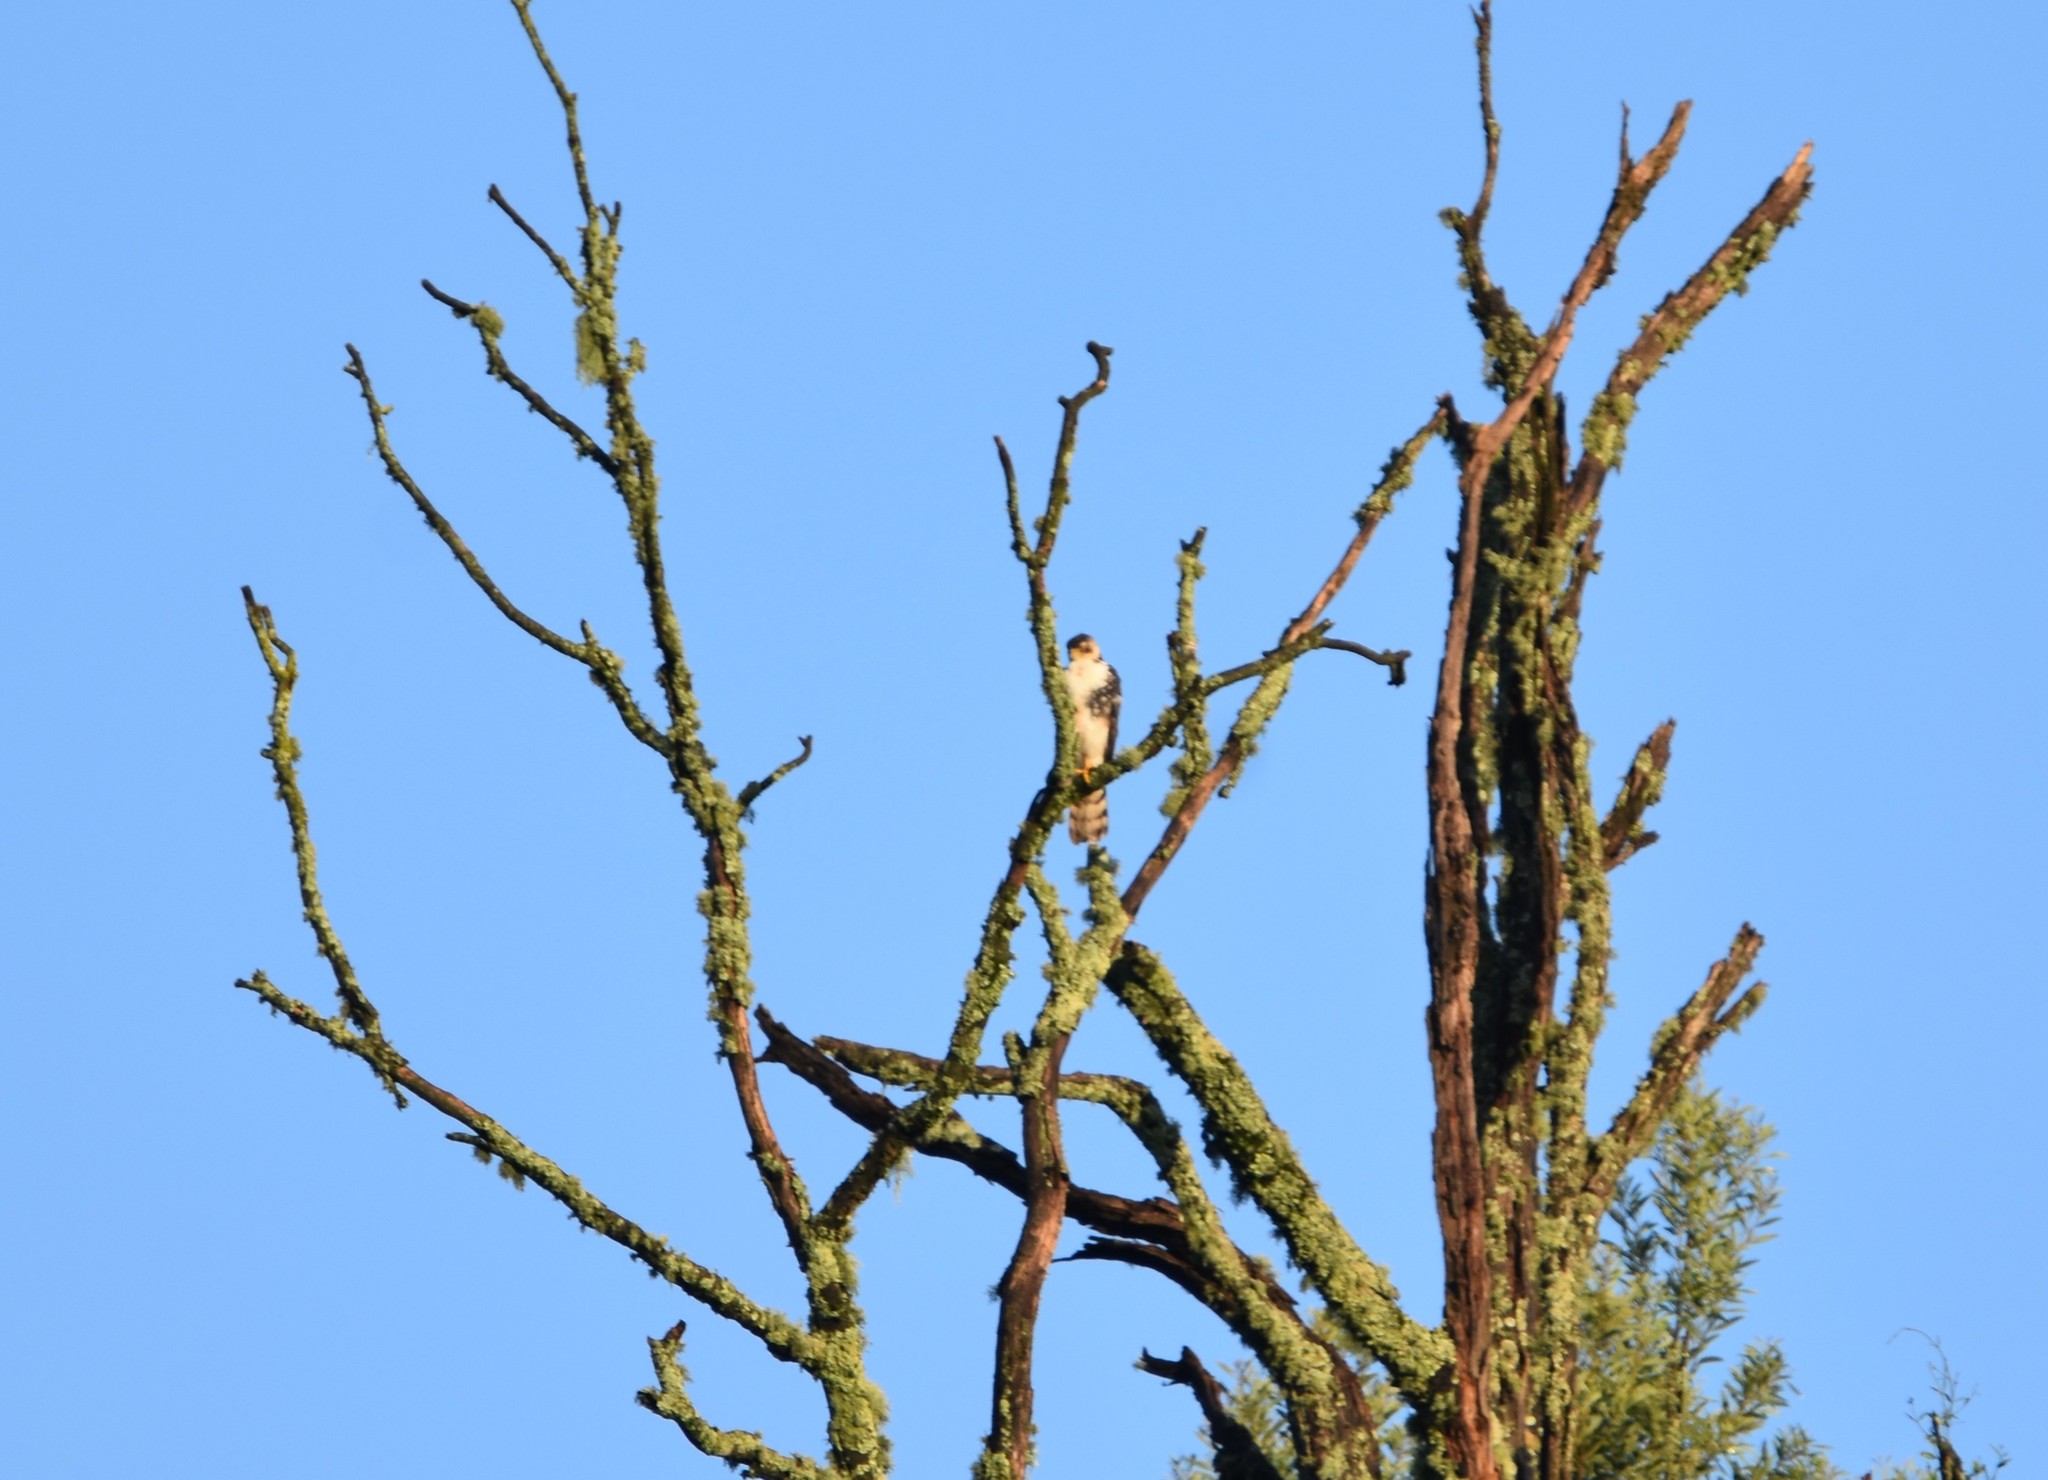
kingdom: Animalia
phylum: Chordata
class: Aves
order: Accipitriformes
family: Accipitridae
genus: Accipiter
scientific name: Accipiter melanoleucus
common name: Black sparrowhawk
